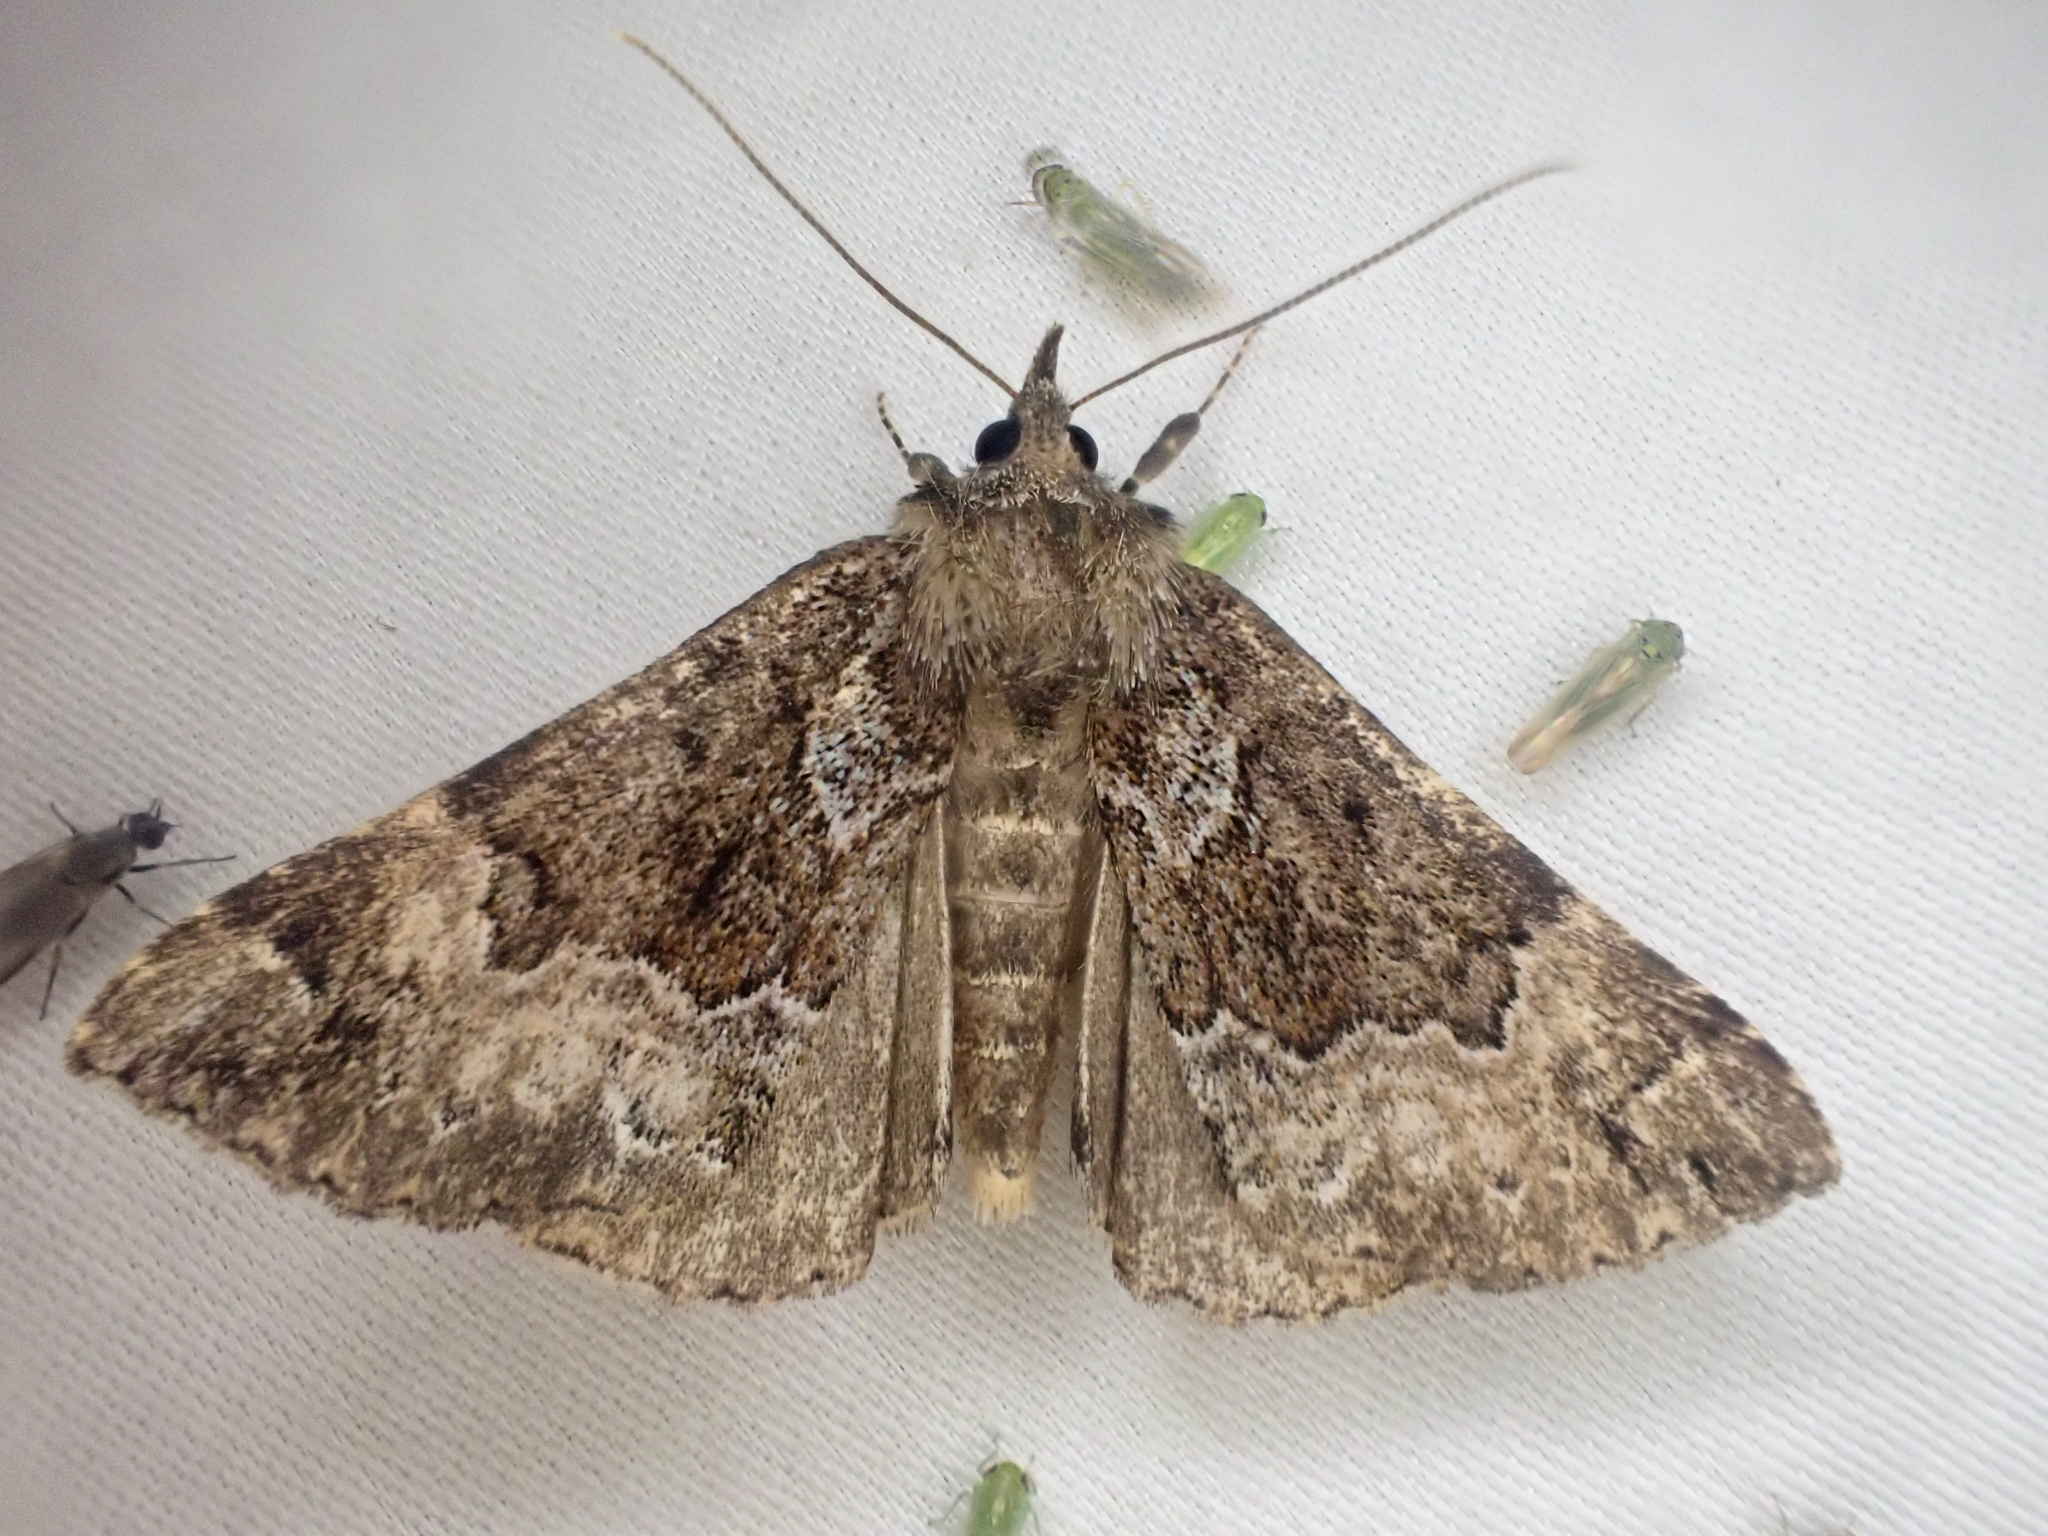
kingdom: Animalia
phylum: Arthropoda
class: Insecta
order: Lepidoptera
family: Erebidae
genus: Hypena
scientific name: Hypena palparia
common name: Mottled bomolocha moth
